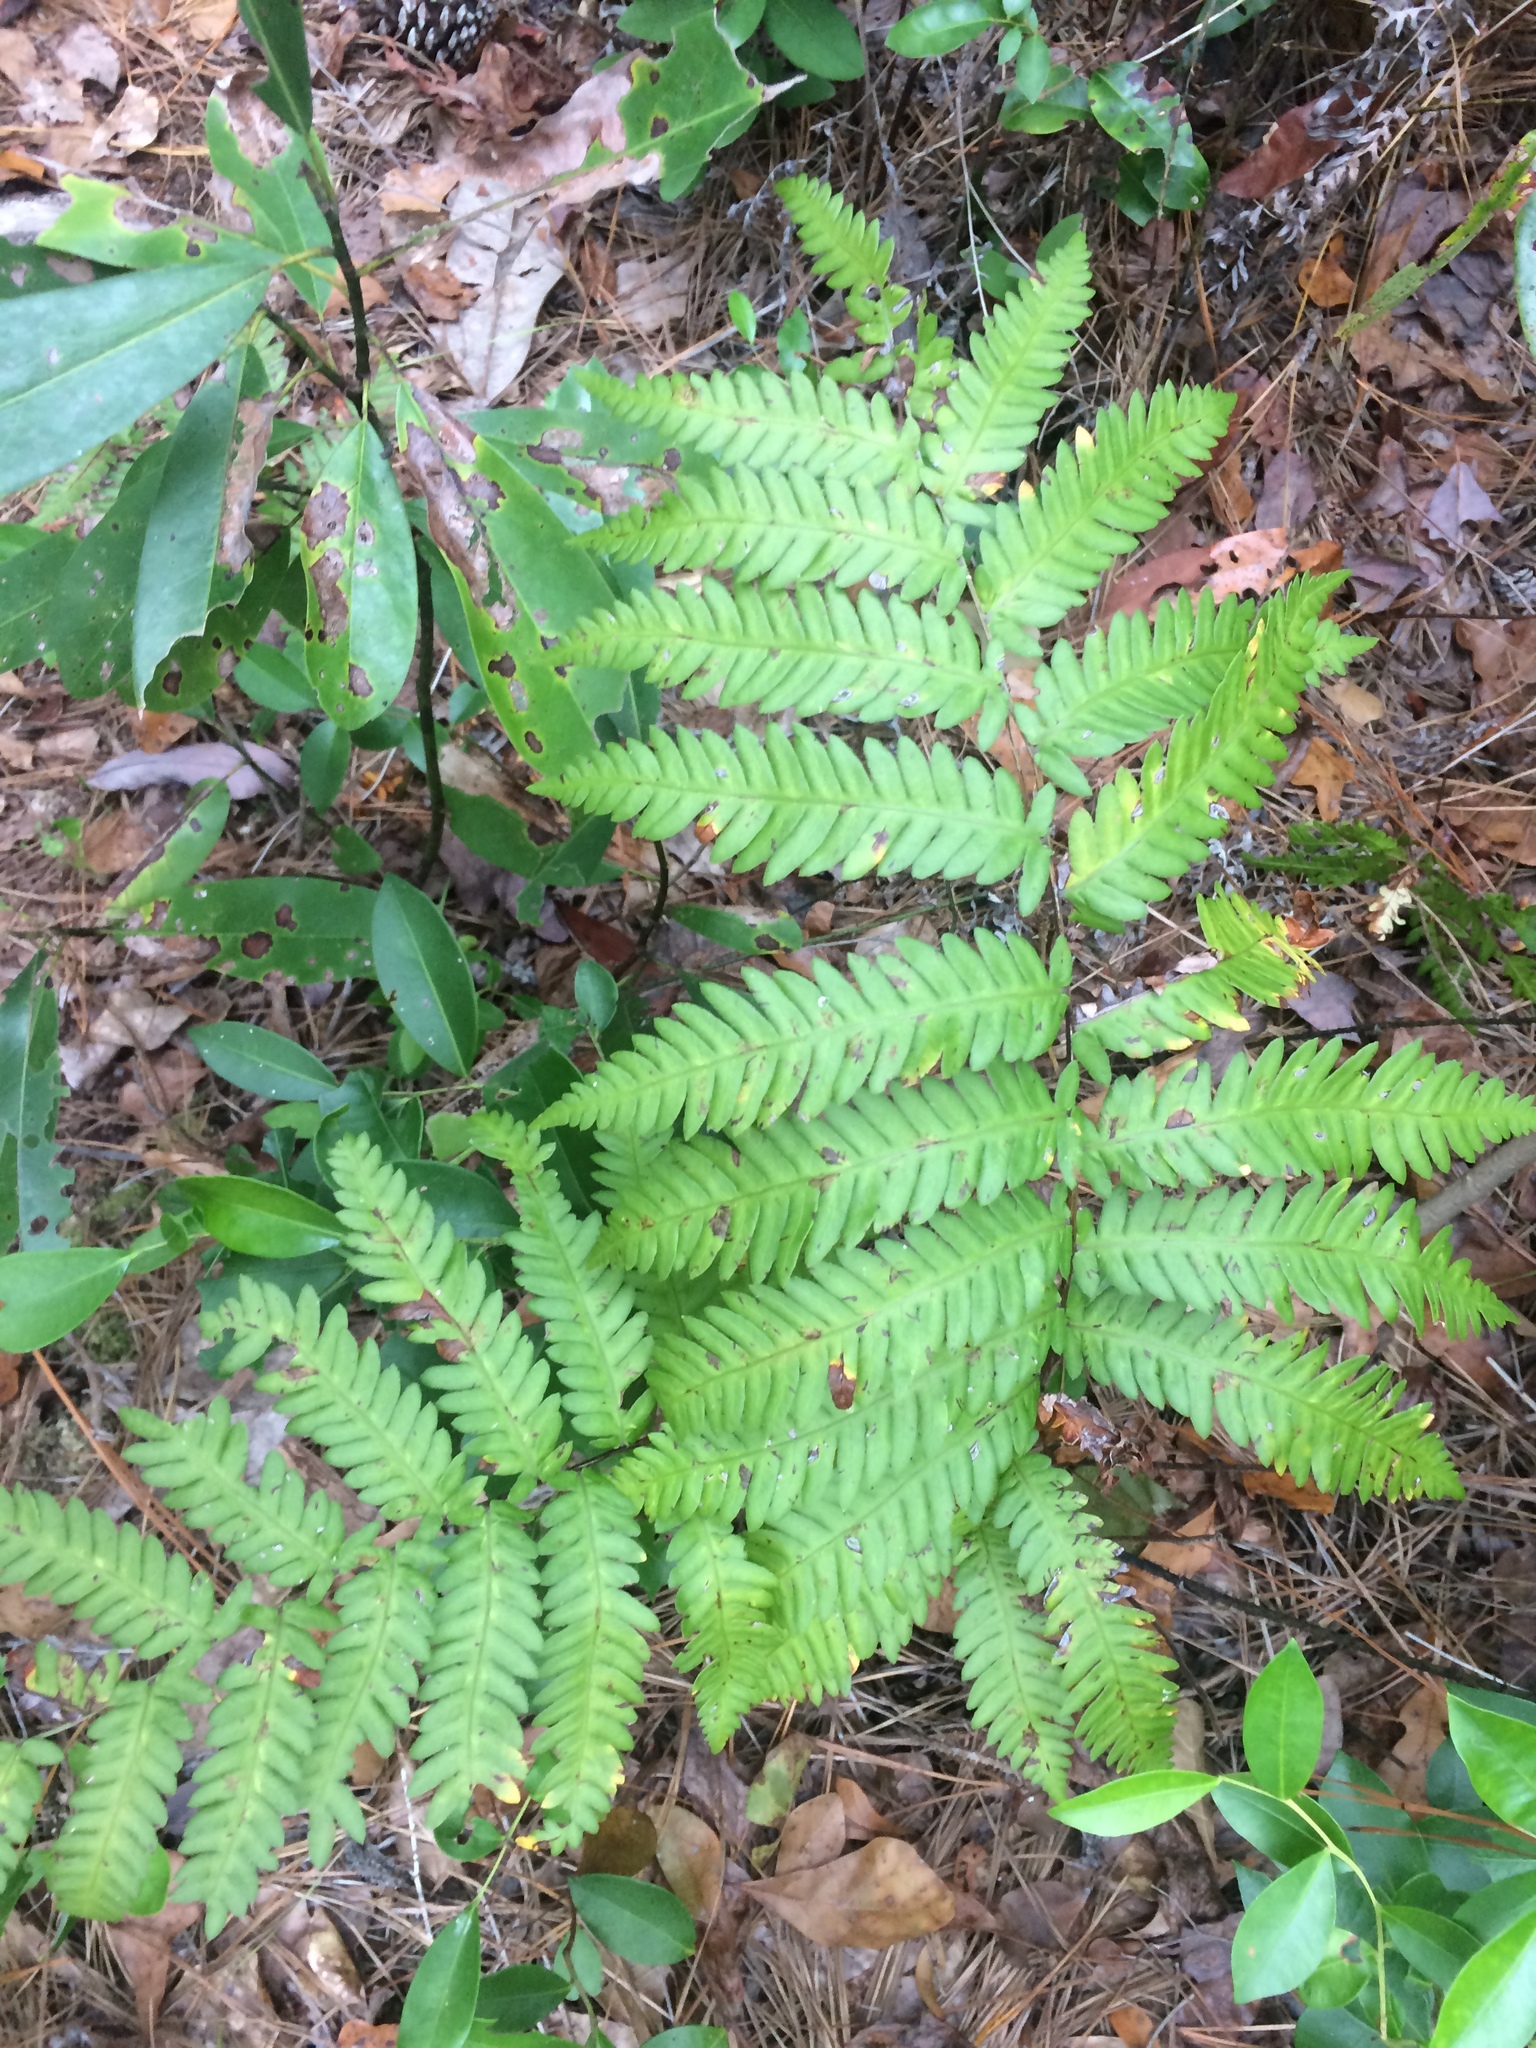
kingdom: Plantae
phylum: Tracheophyta
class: Polypodiopsida
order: Polypodiales
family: Blechnaceae
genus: Anchistea
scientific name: Anchistea virginica
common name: Virginia chain fern
